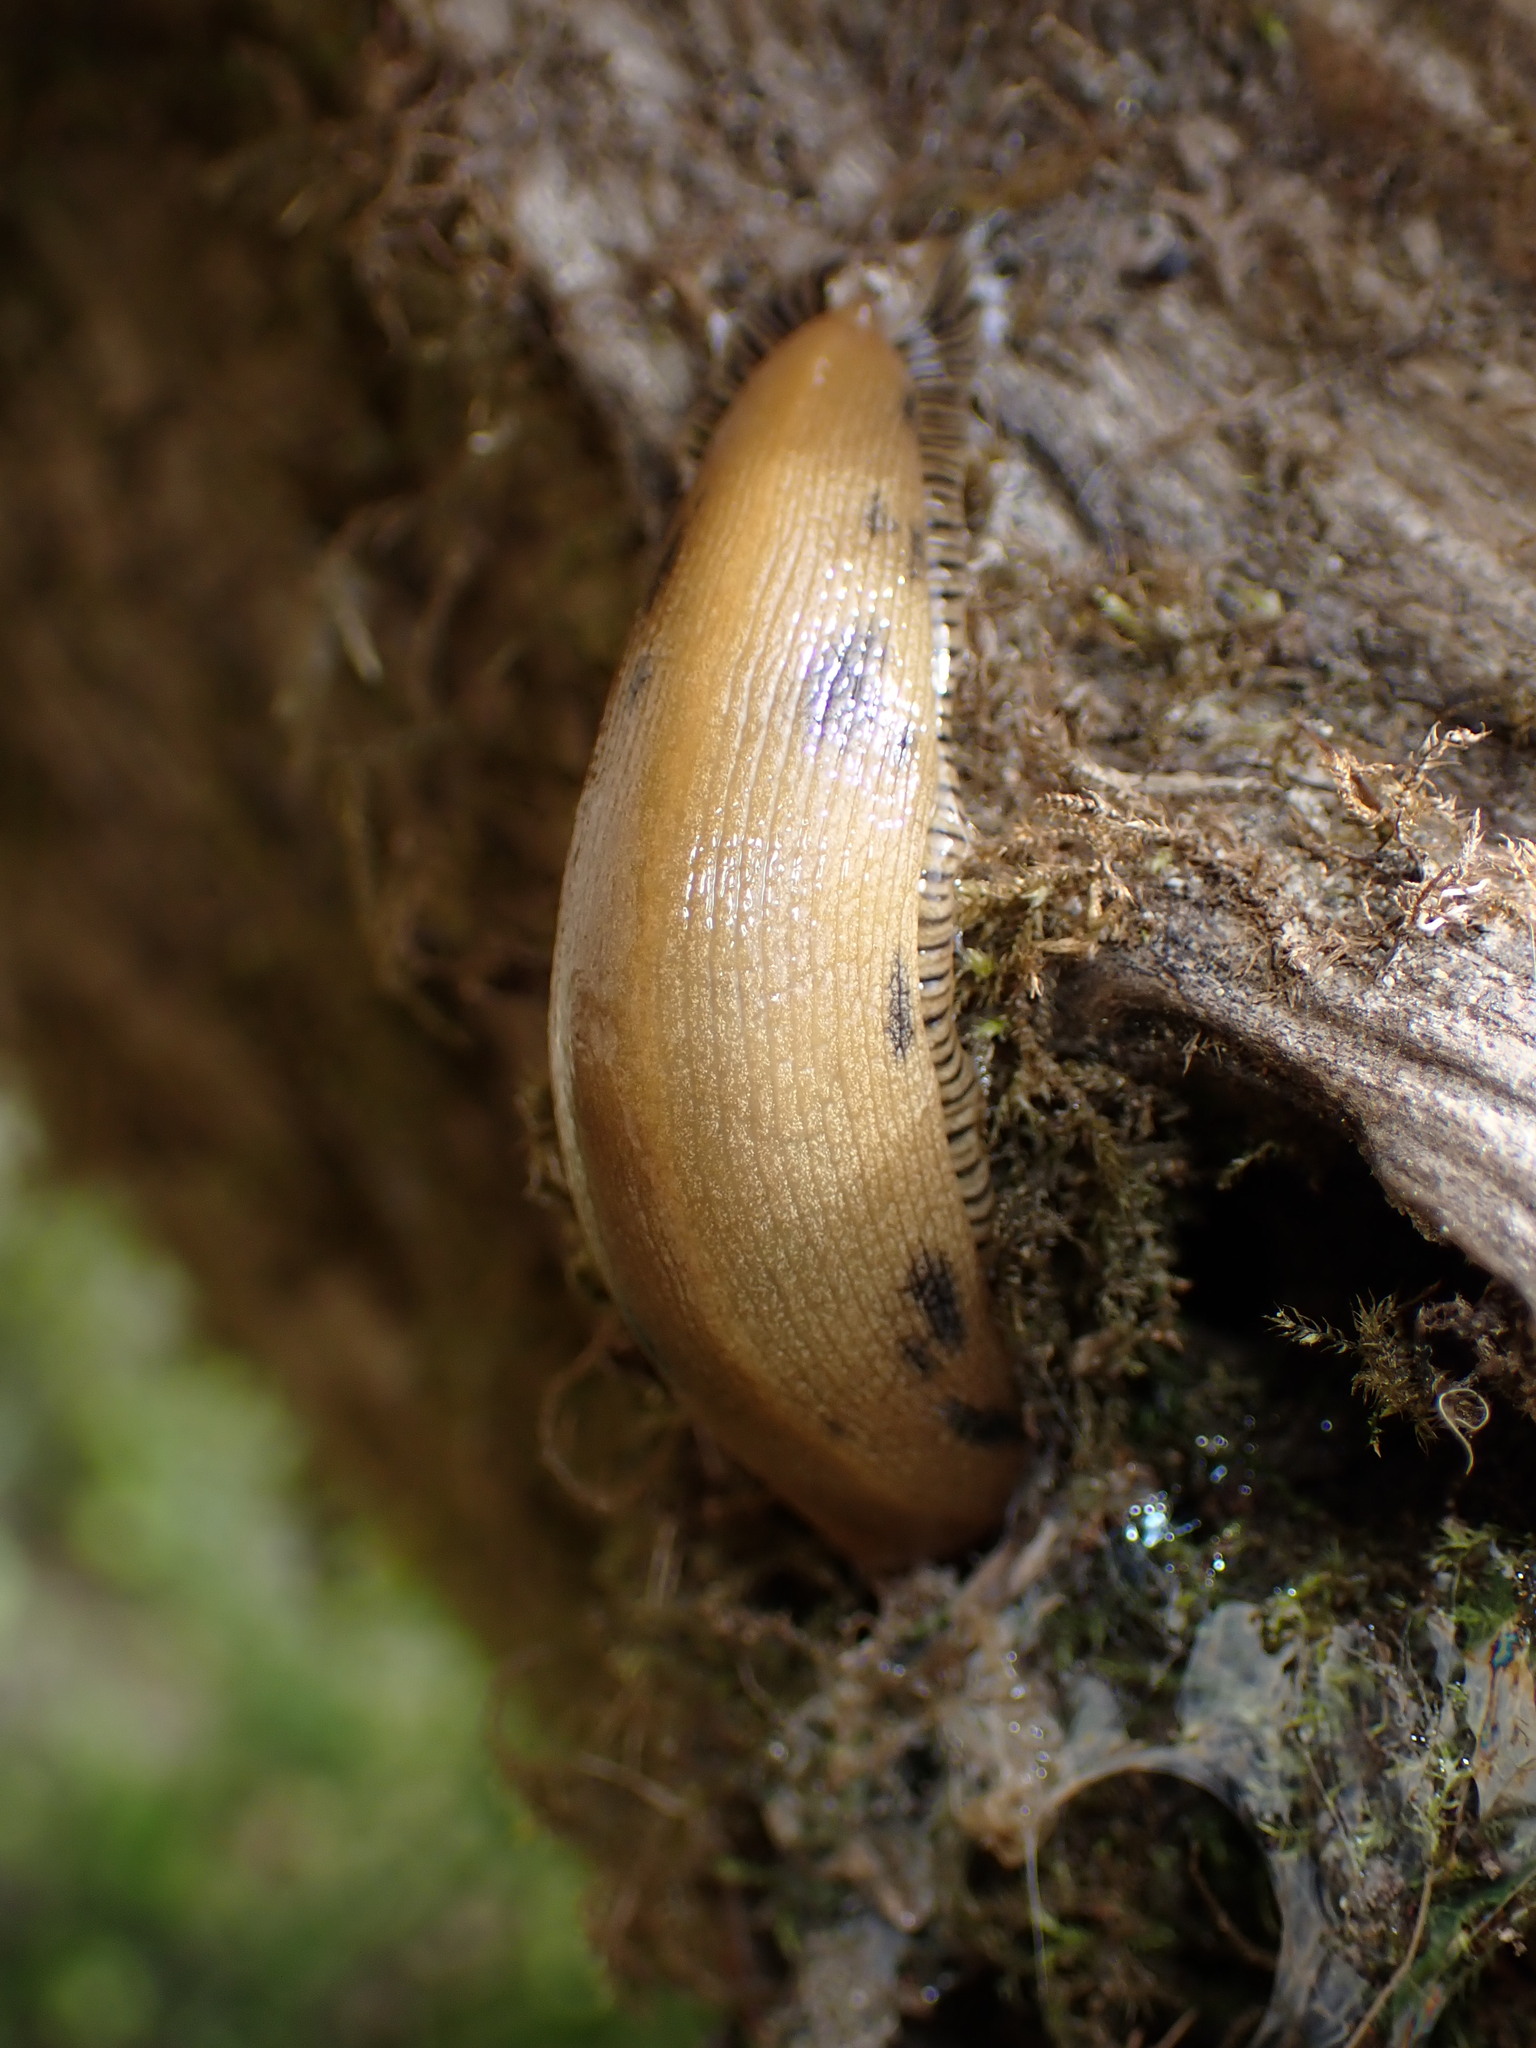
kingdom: Animalia
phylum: Mollusca
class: Gastropoda
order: Stylommatophora
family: Ariolimacidae
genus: Ariolimax
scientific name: Ariolimax buttoni
